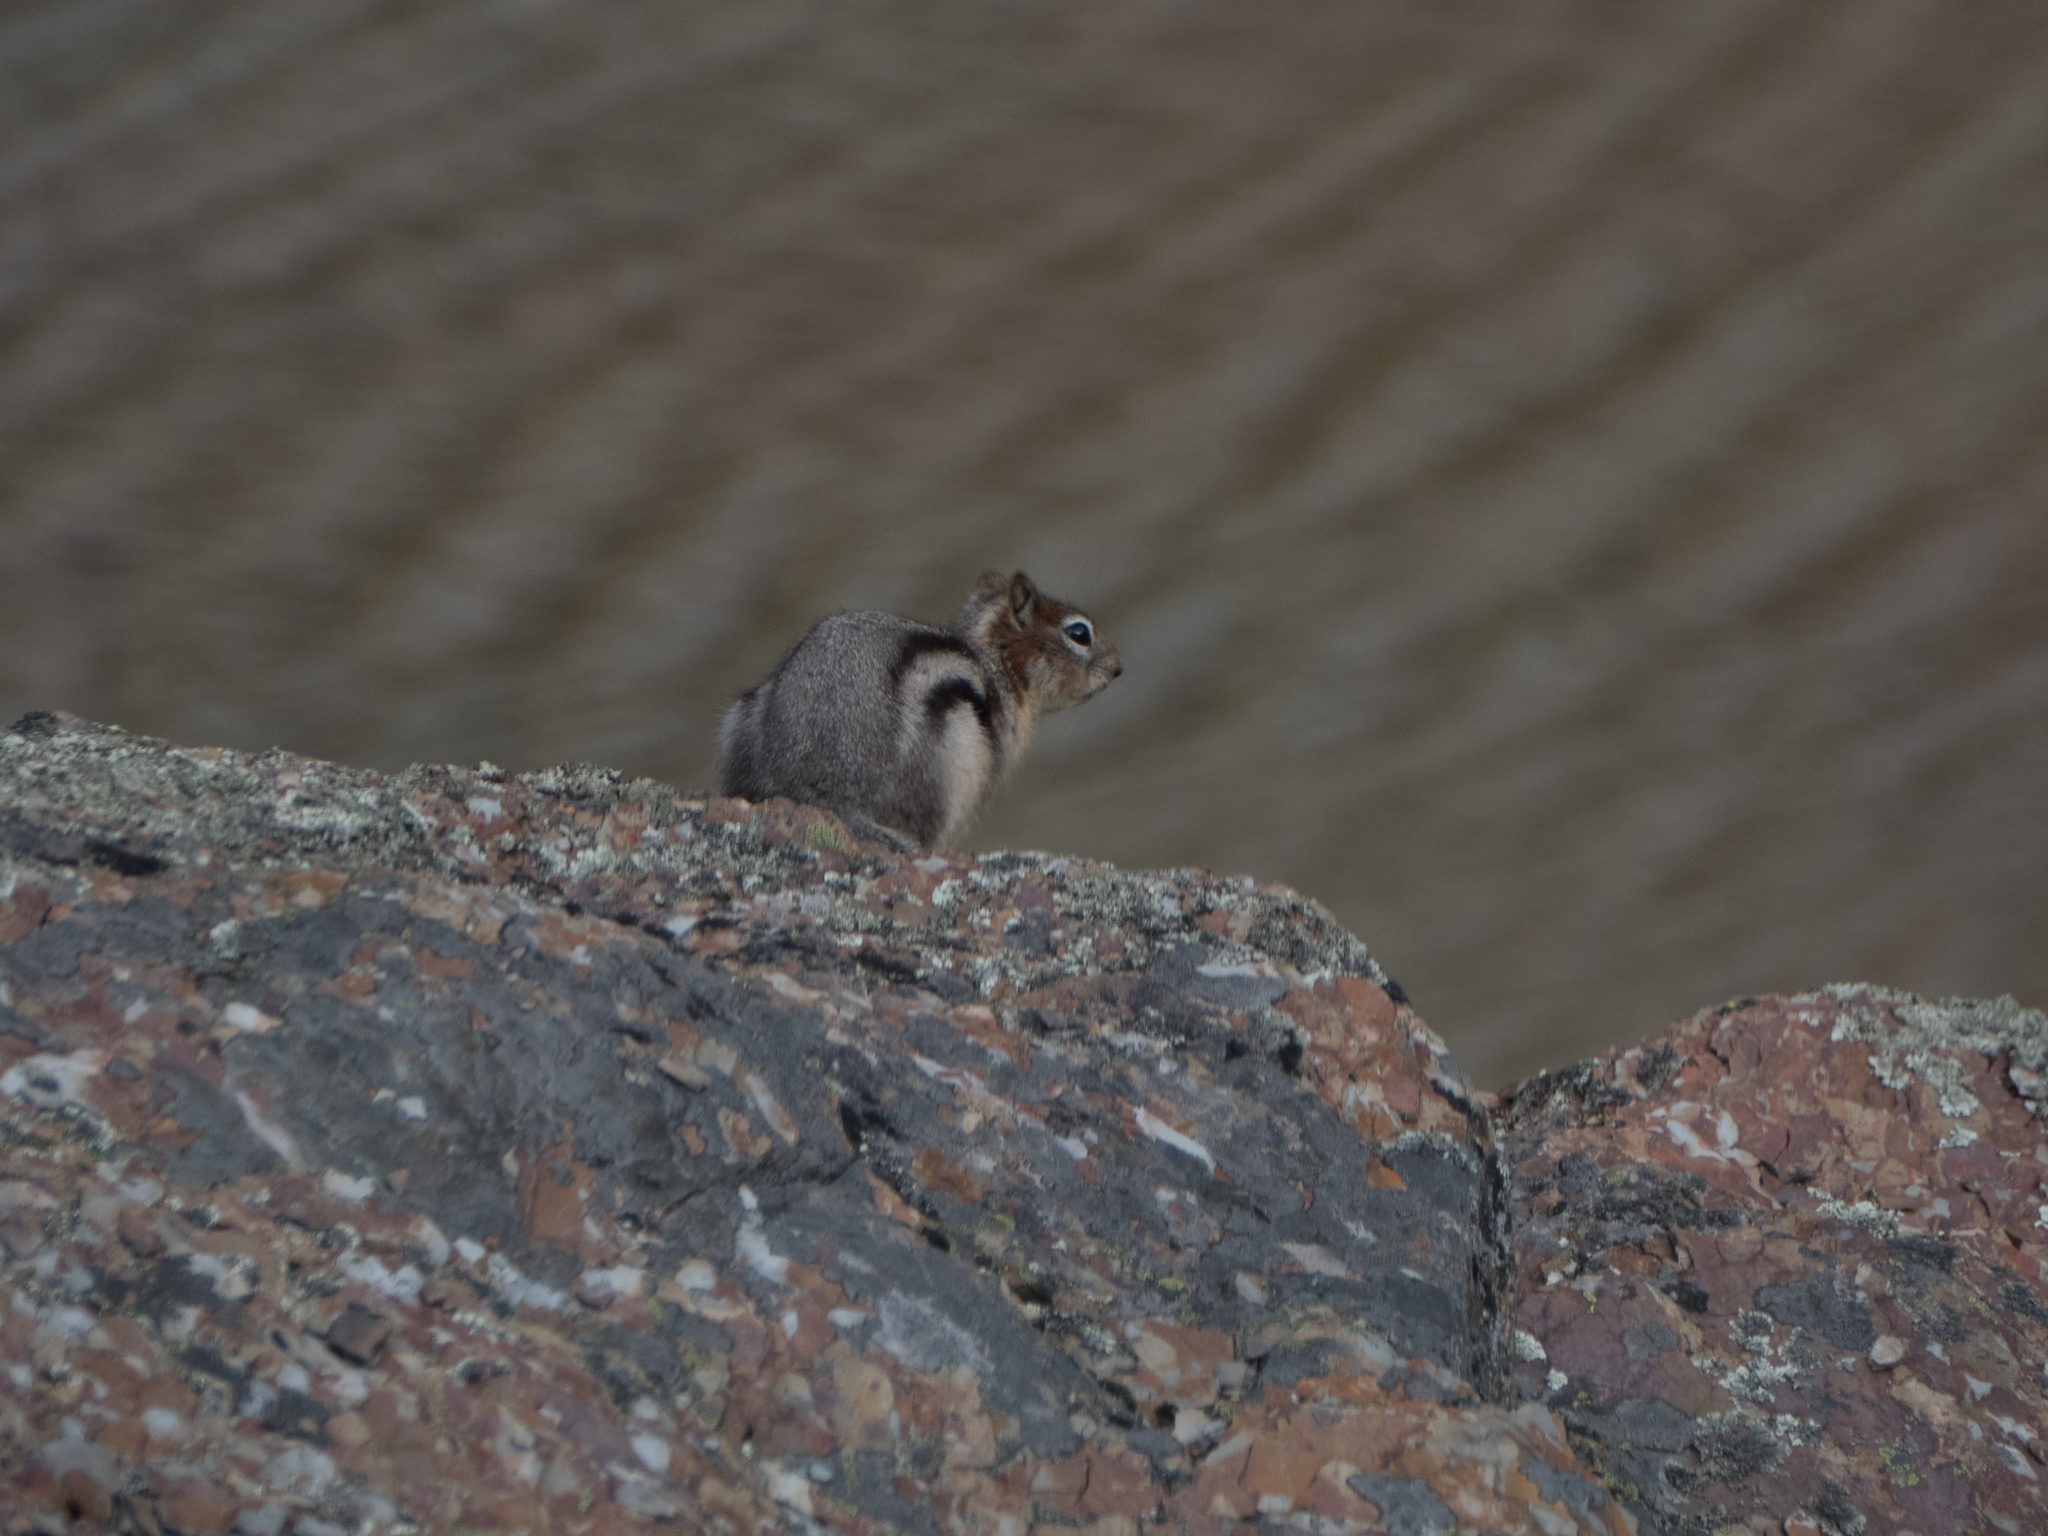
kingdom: Animalia
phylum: Chordata
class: Mammalia
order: Rodentia
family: Sciuridae
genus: Callospermophilus
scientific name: Callospermophilus lateralis
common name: Golden-mantled ground squirrel
